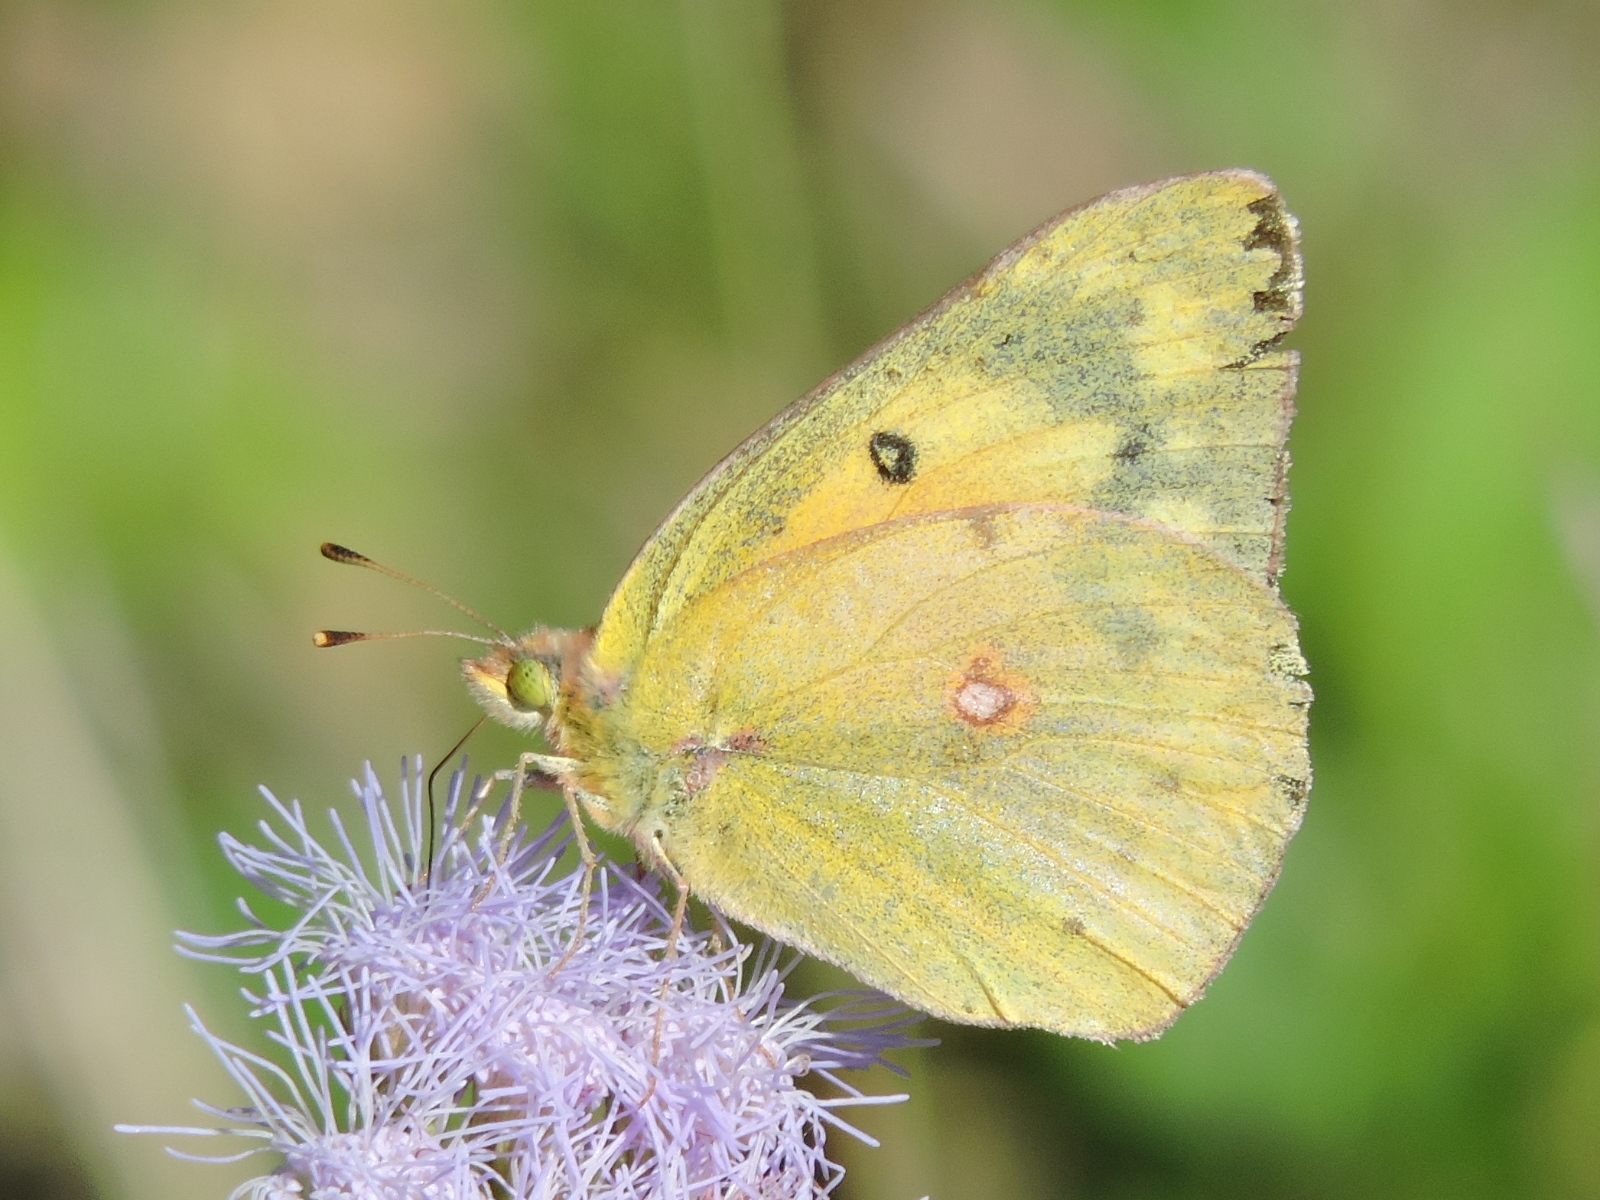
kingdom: Animalia
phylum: Arthropoda
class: Insecta
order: Lepidoptera
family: Pieridae
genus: Colias
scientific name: Colias eurytheme
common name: Alfalfa butterfly
